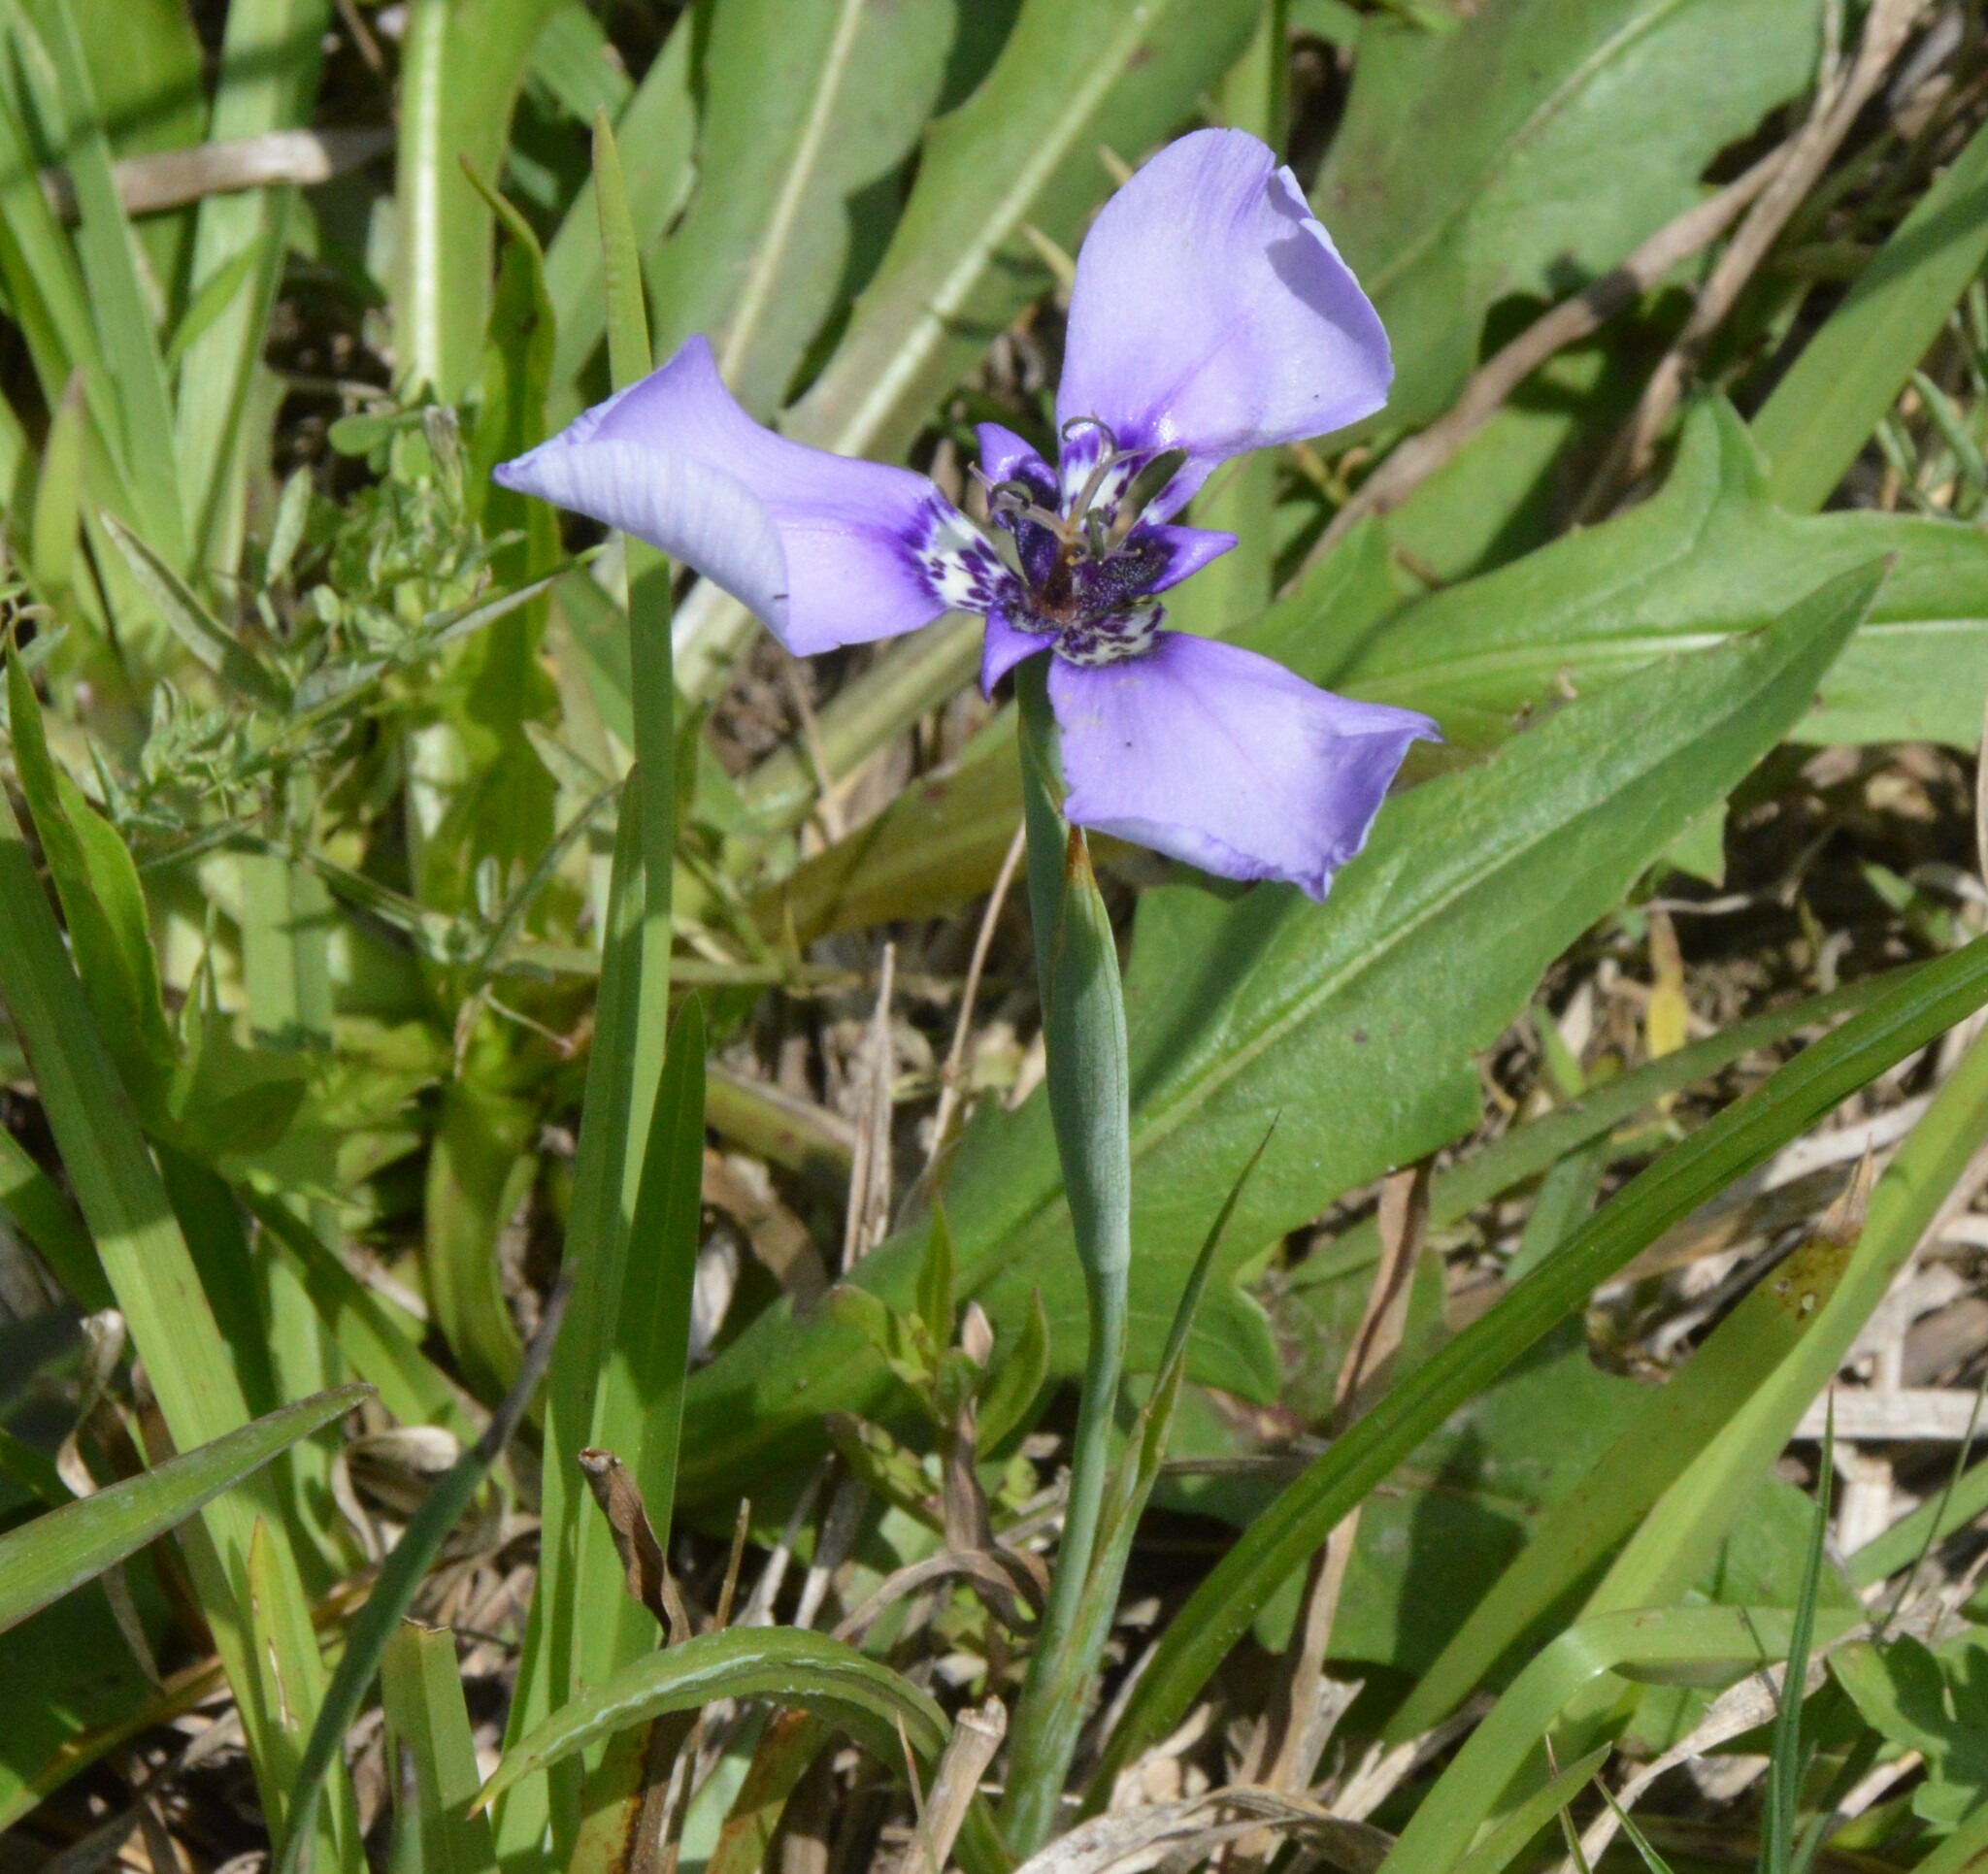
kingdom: Plantae
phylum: Tracheophyta
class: Liliopsida
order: Asparagales
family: Iridaceae
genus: Herbertia
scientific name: Herbertia lahue
